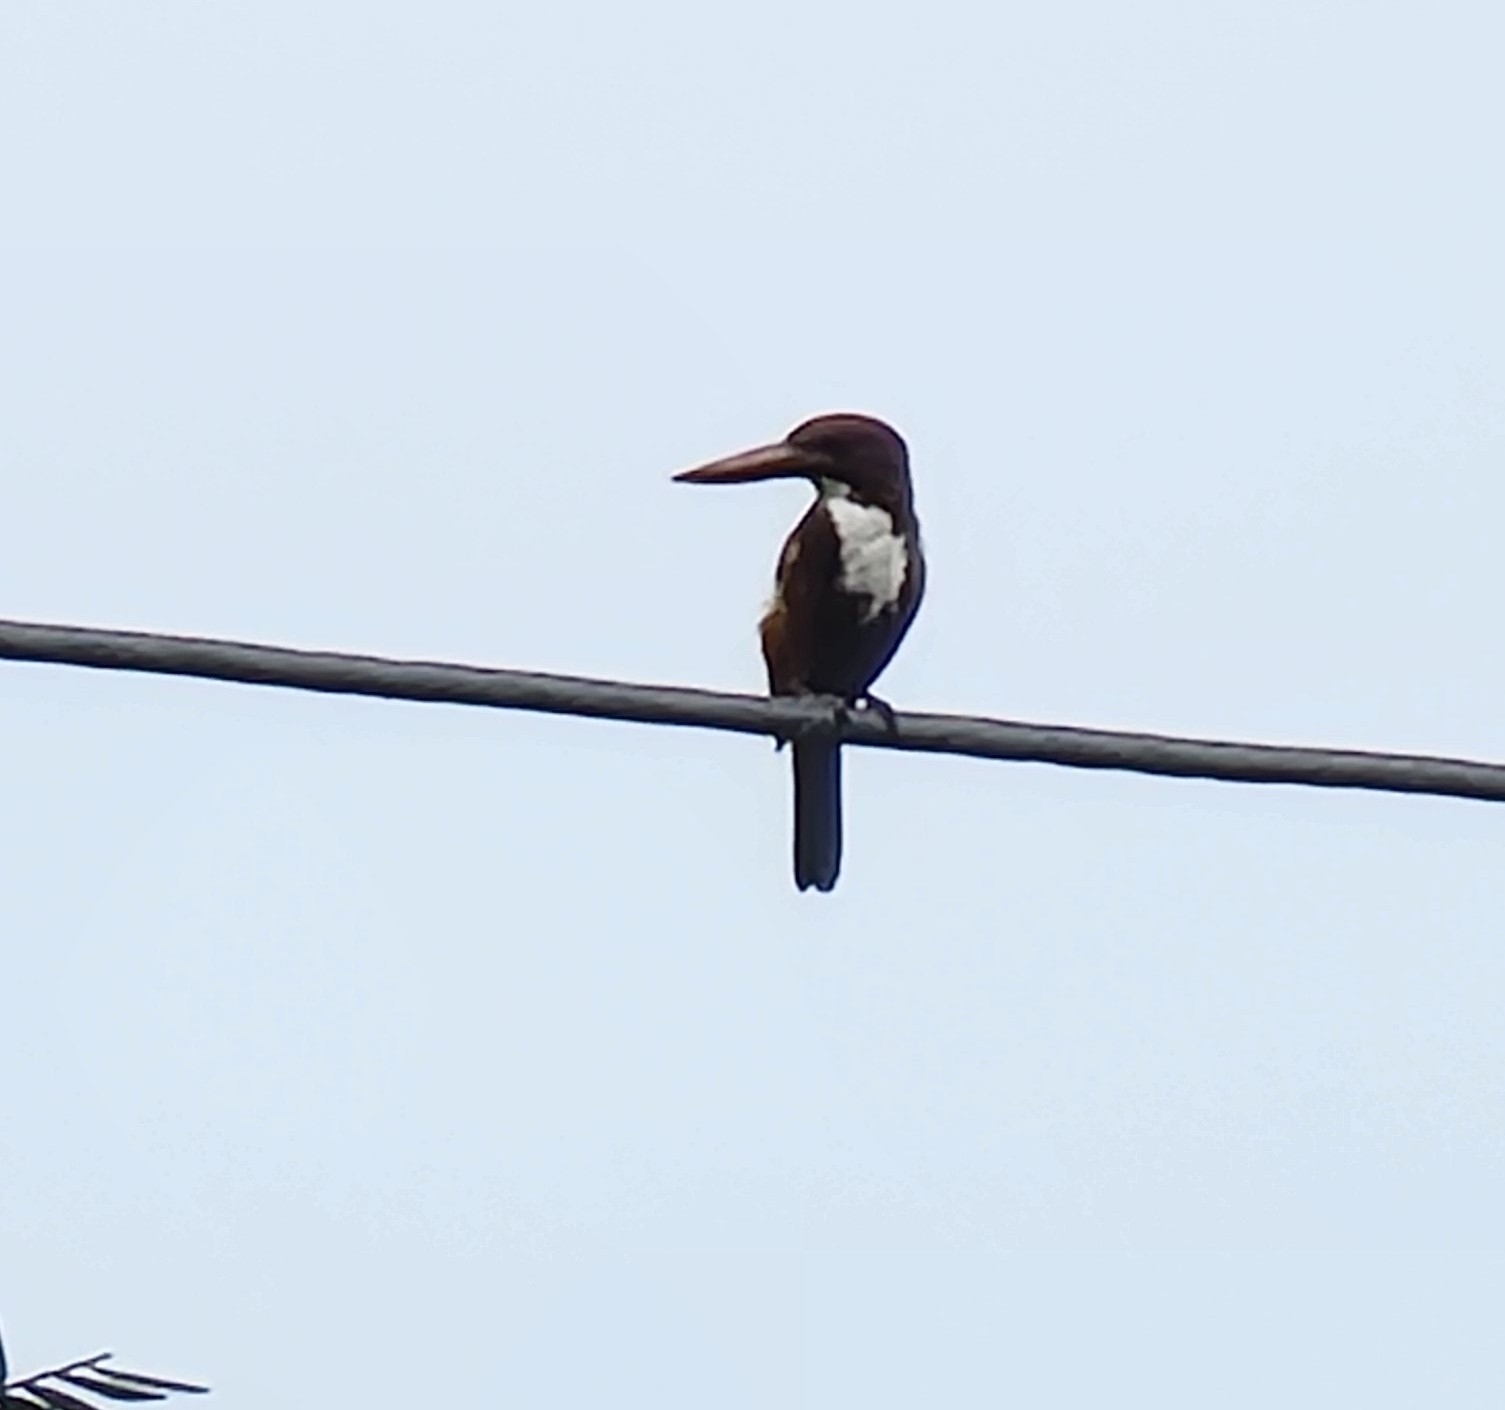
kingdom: Animalia
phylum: Chordata
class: Aves
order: Coraciiformes
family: Alcedinidae
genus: Halcyon
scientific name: Halcyon smyrnensis
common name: White-throated kingfisher
